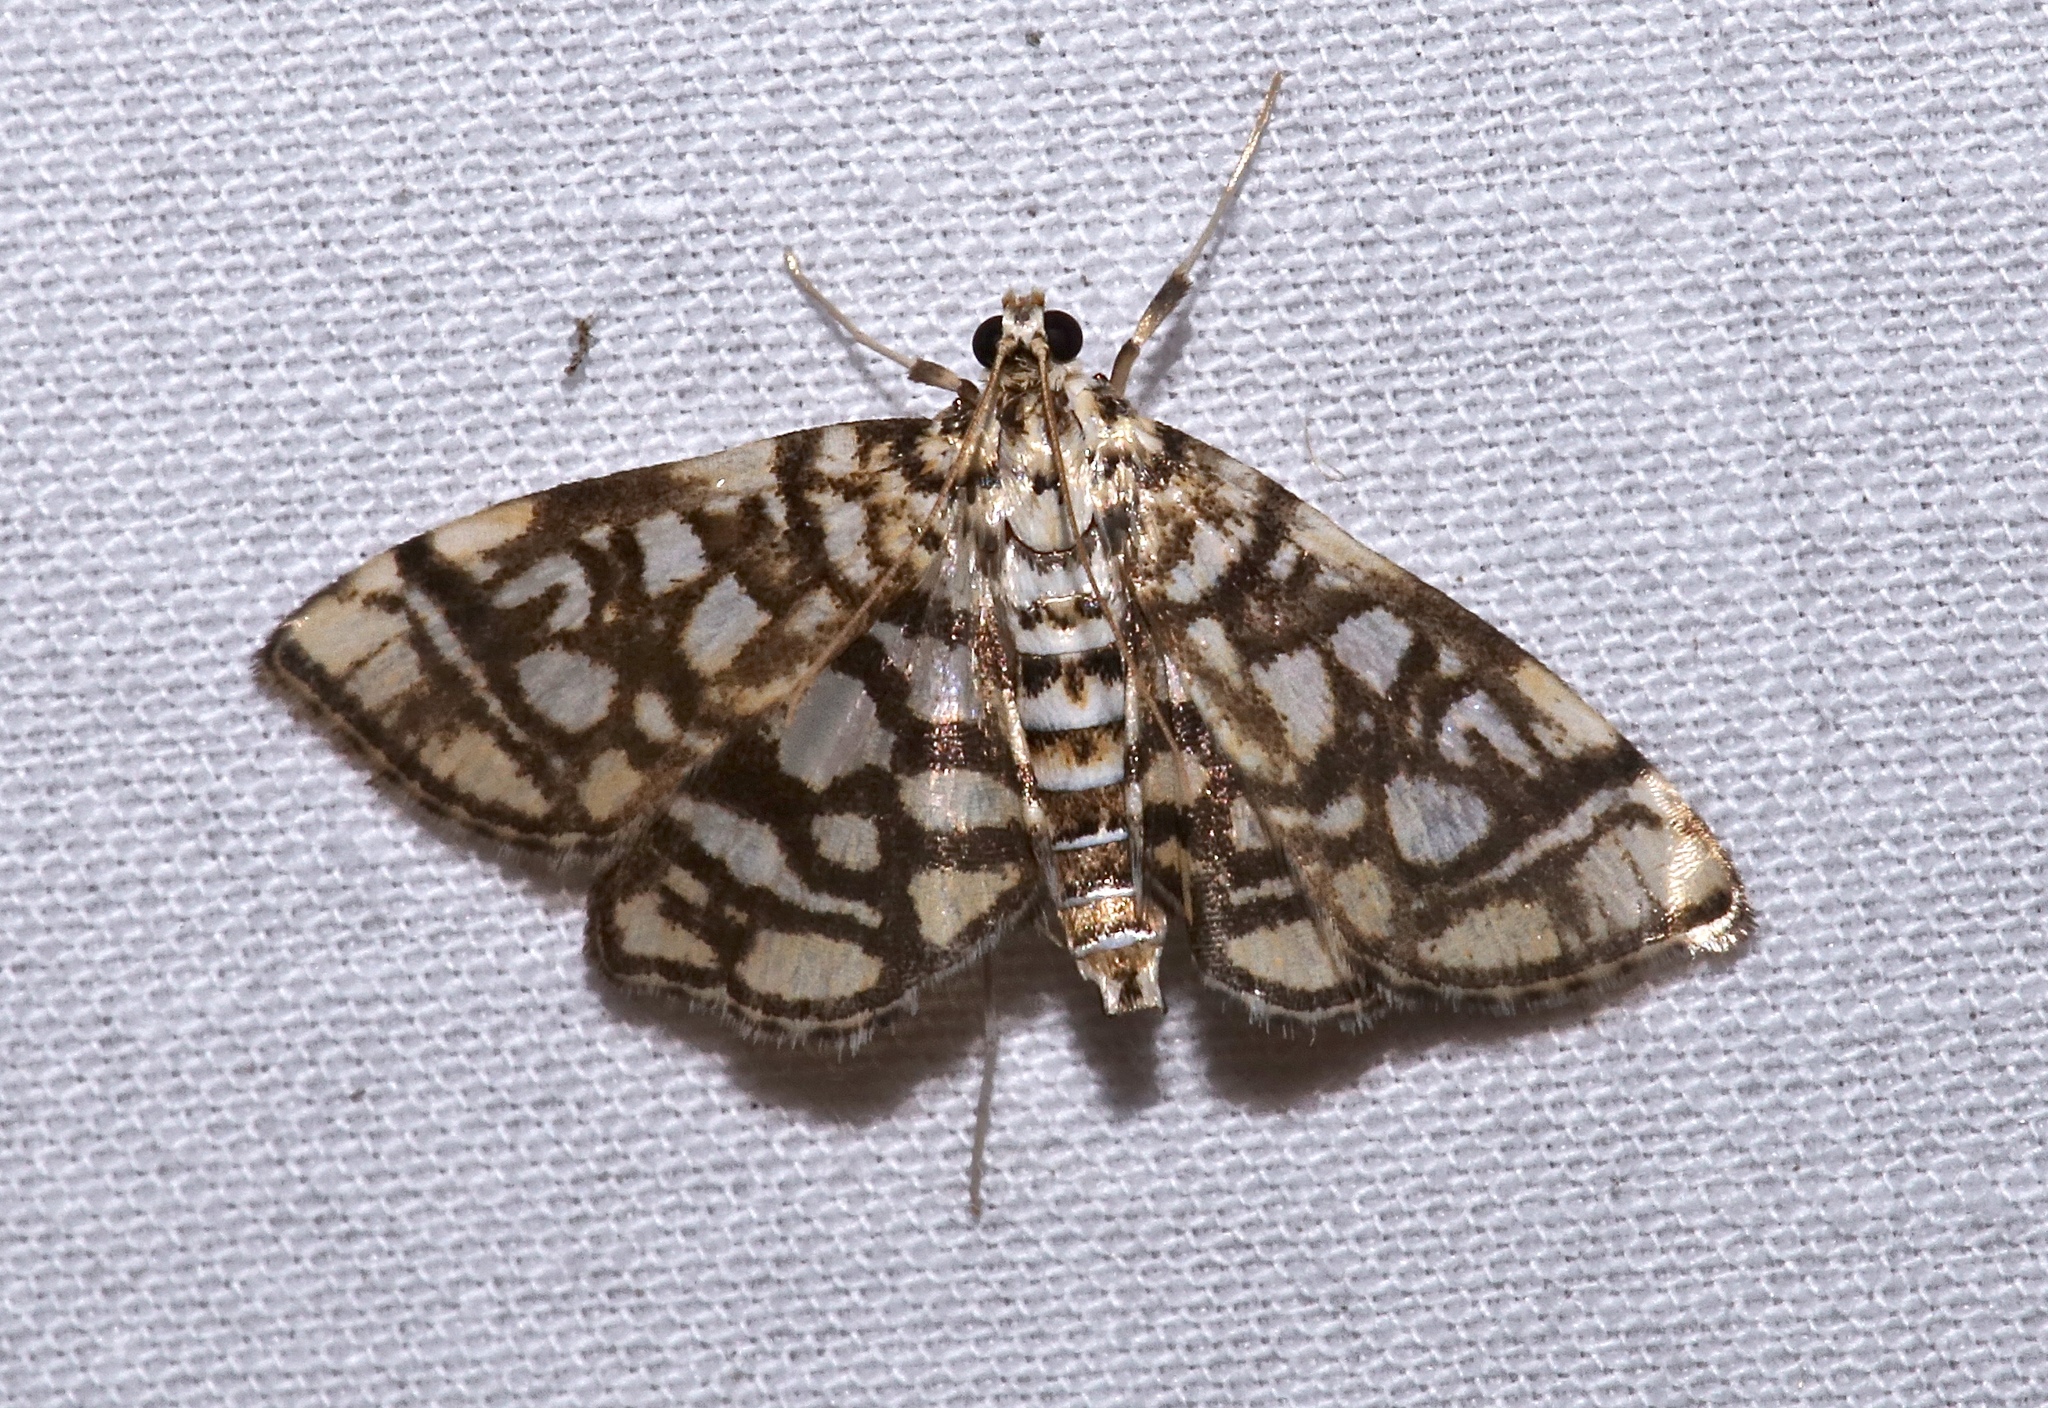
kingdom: Animalia
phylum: Arthropoda
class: Insecta
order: Lepidoptera
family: Crambidae
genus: Lygropia
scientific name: Lygropia rivulalis
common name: Bog lygropia moth
